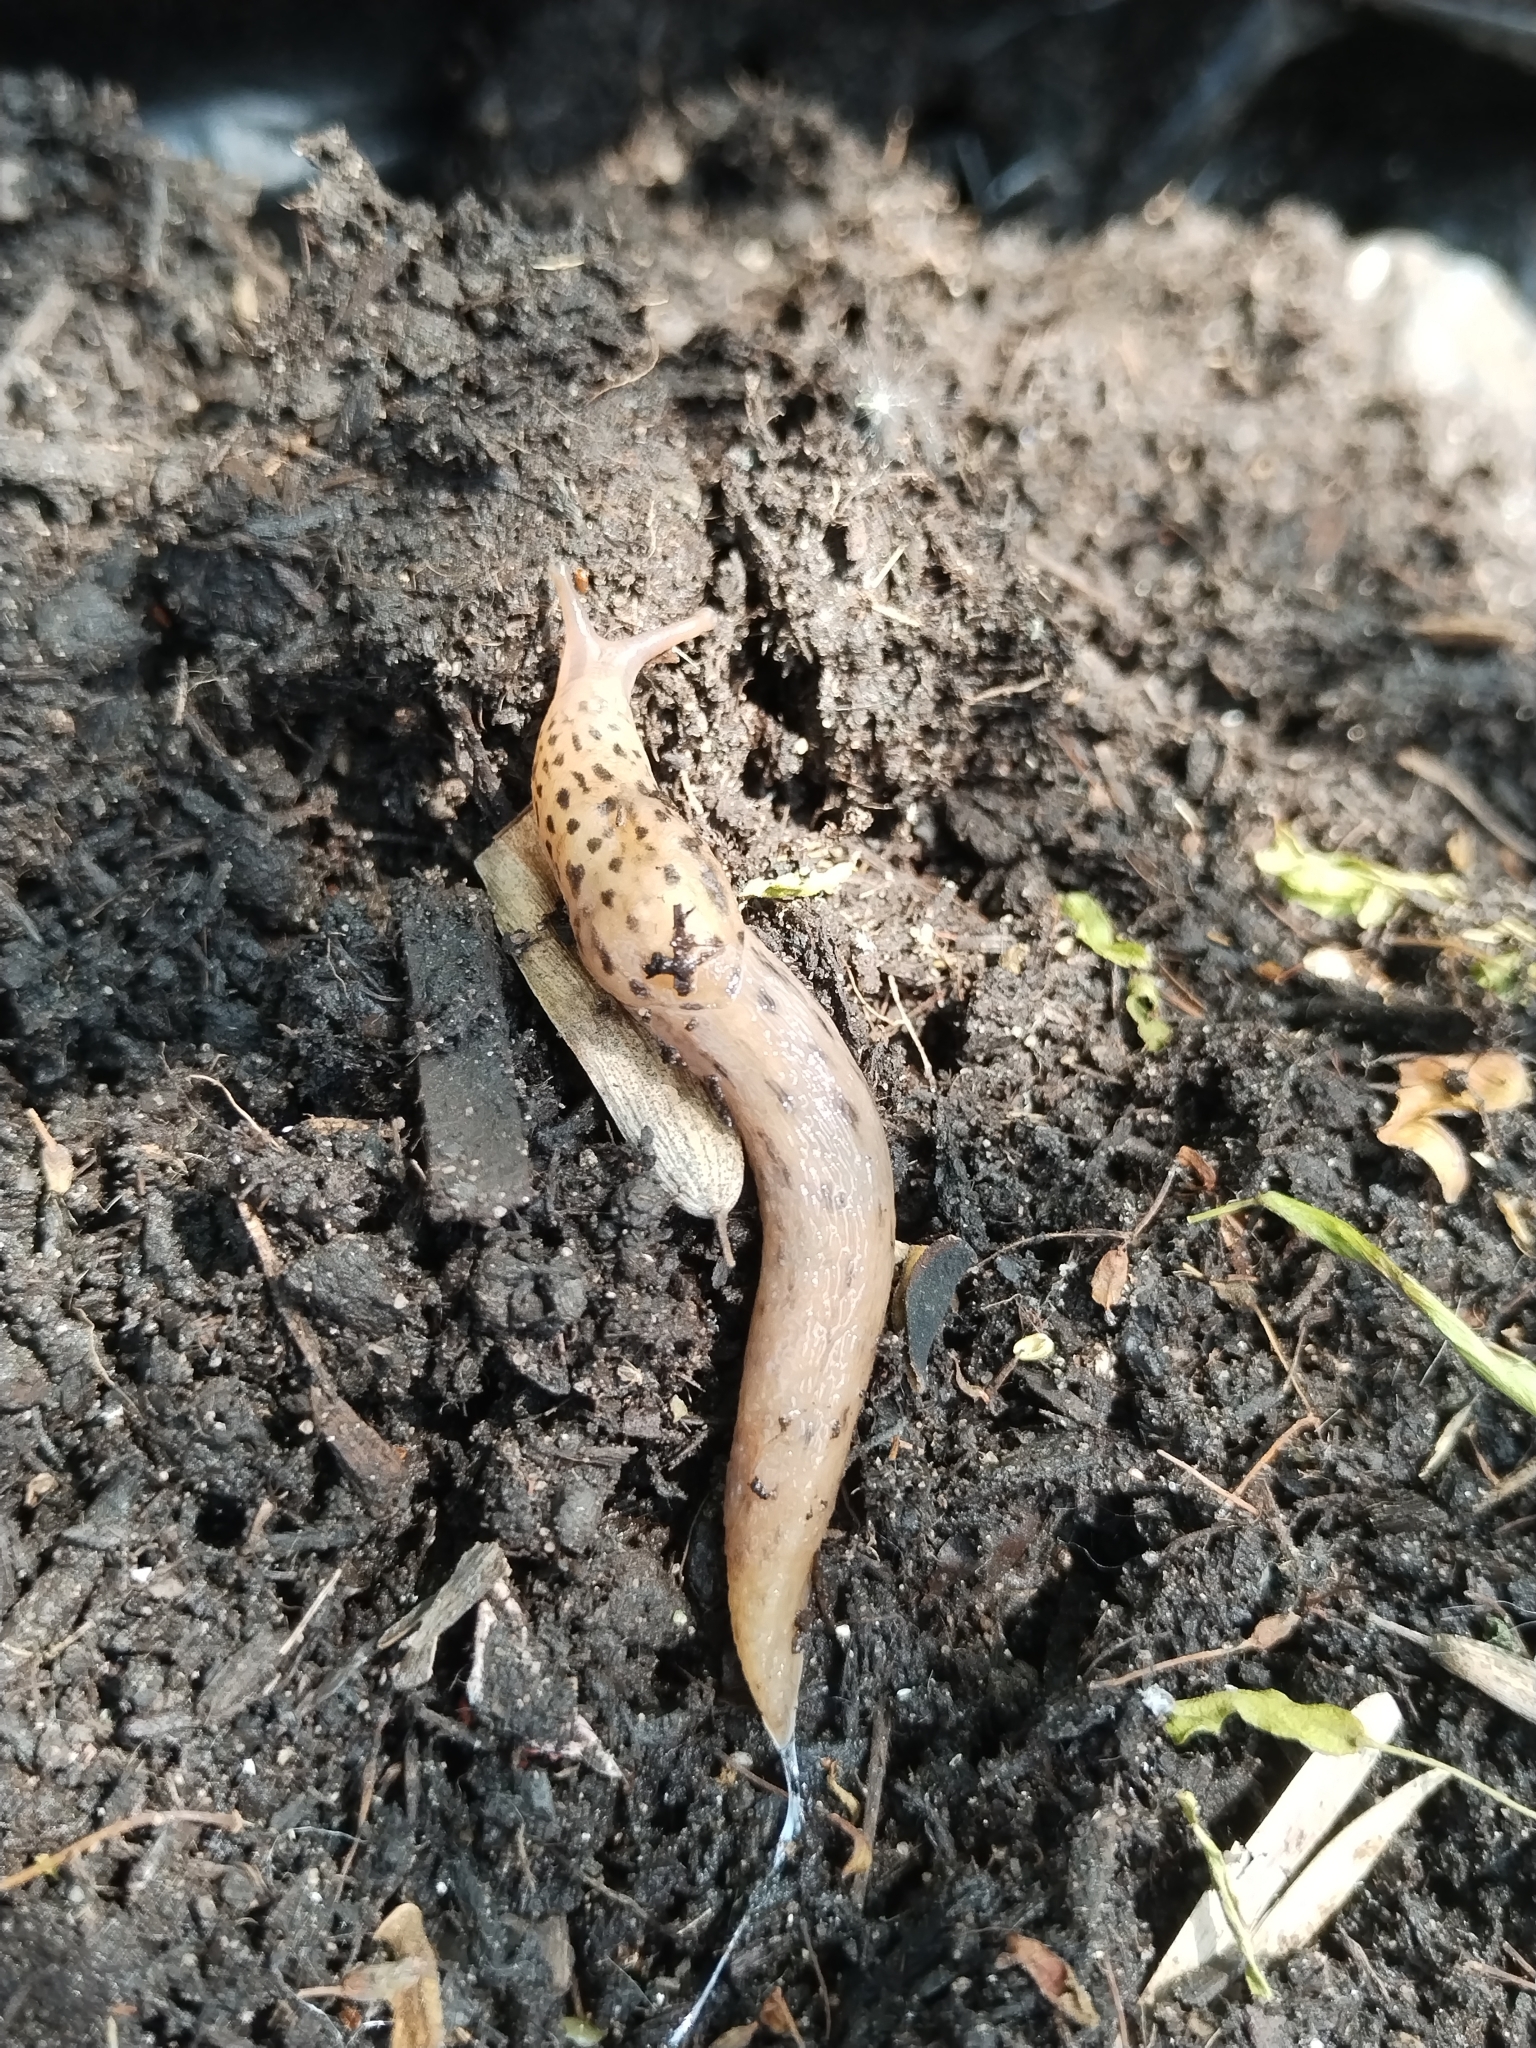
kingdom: Animalia
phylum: Mollusca
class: Gastropoda
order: Stylommatophora
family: Limacidae
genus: Limax
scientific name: Limax maximus
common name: Great grey slug
